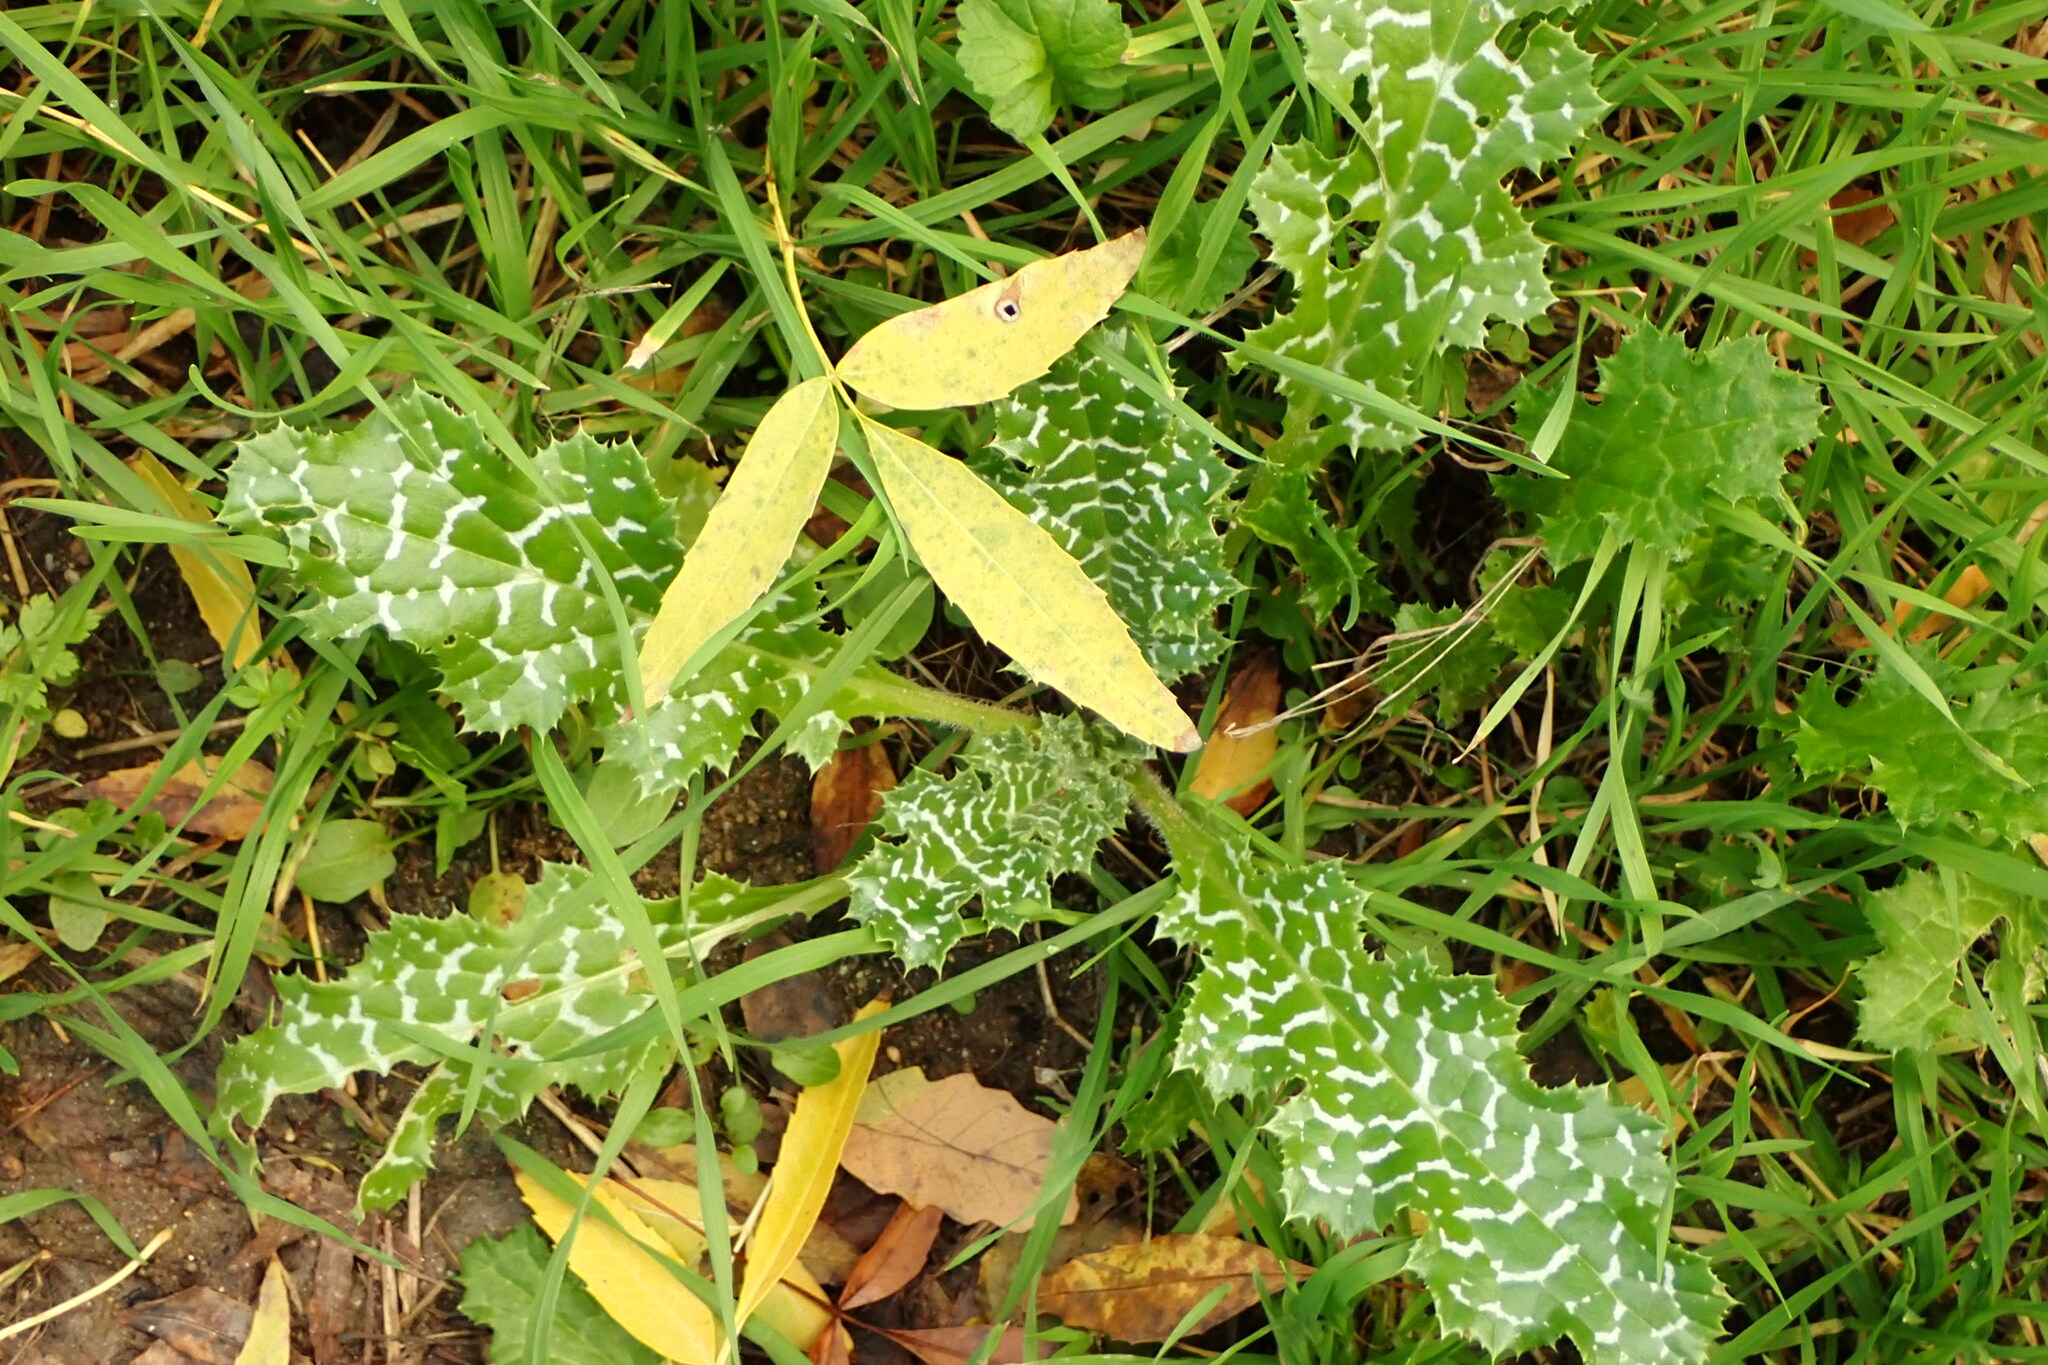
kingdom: Plantae
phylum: Tracheophyta
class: Magnoliopsida
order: Asterales
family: Asteraceae
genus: Silybum
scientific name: Silybum marianum
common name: Milk thistle
